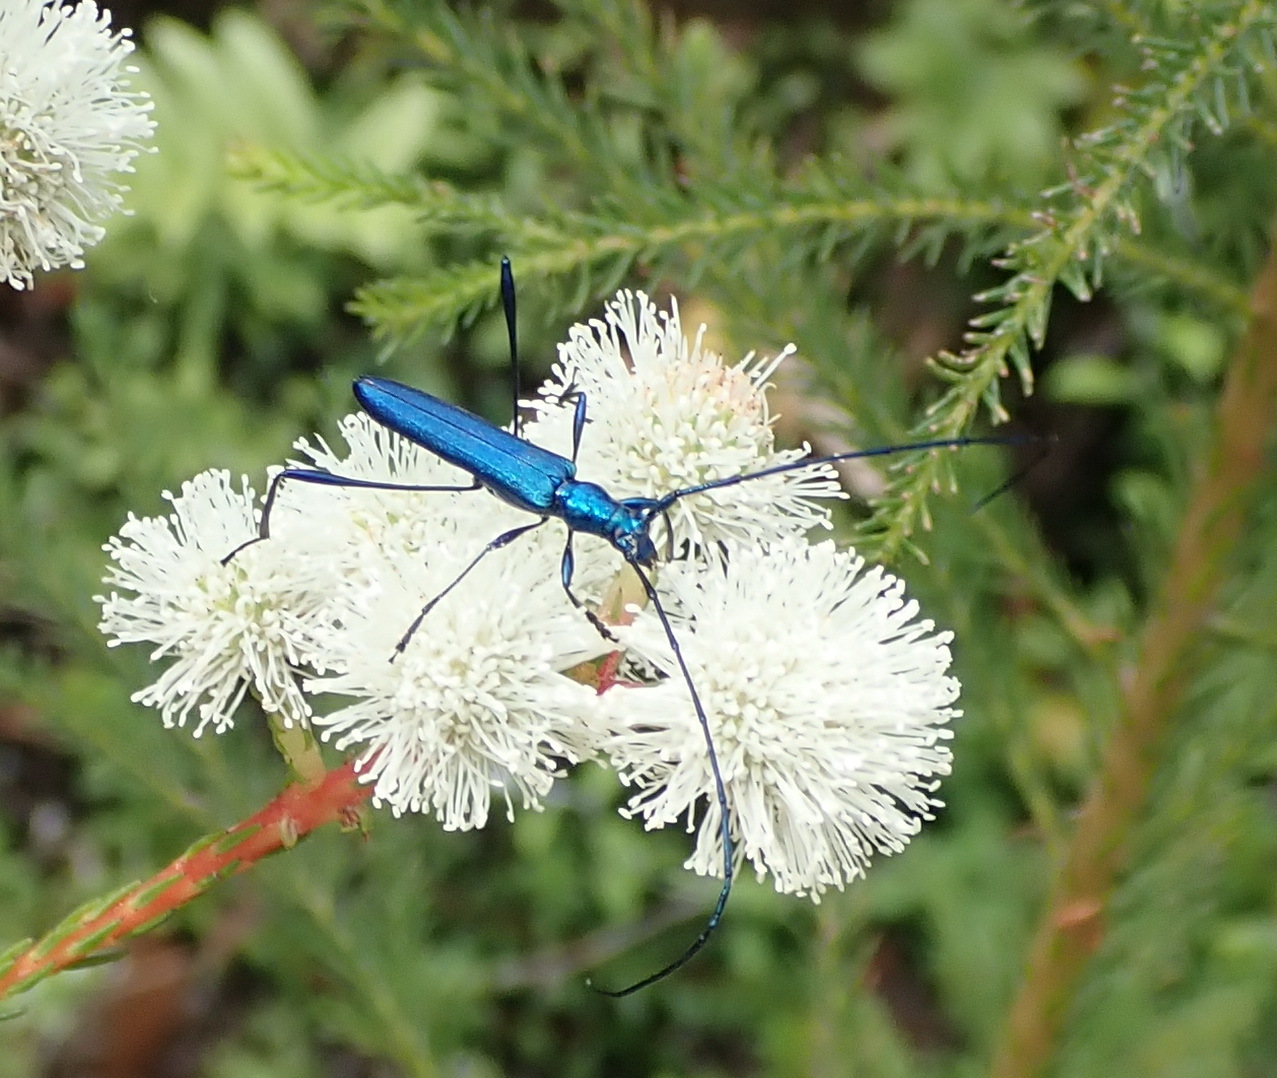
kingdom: Animalia
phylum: Arthropoda
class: Insecta
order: Coleoptera
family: Cerambycidae
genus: Promeces
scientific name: Promeces longipes
